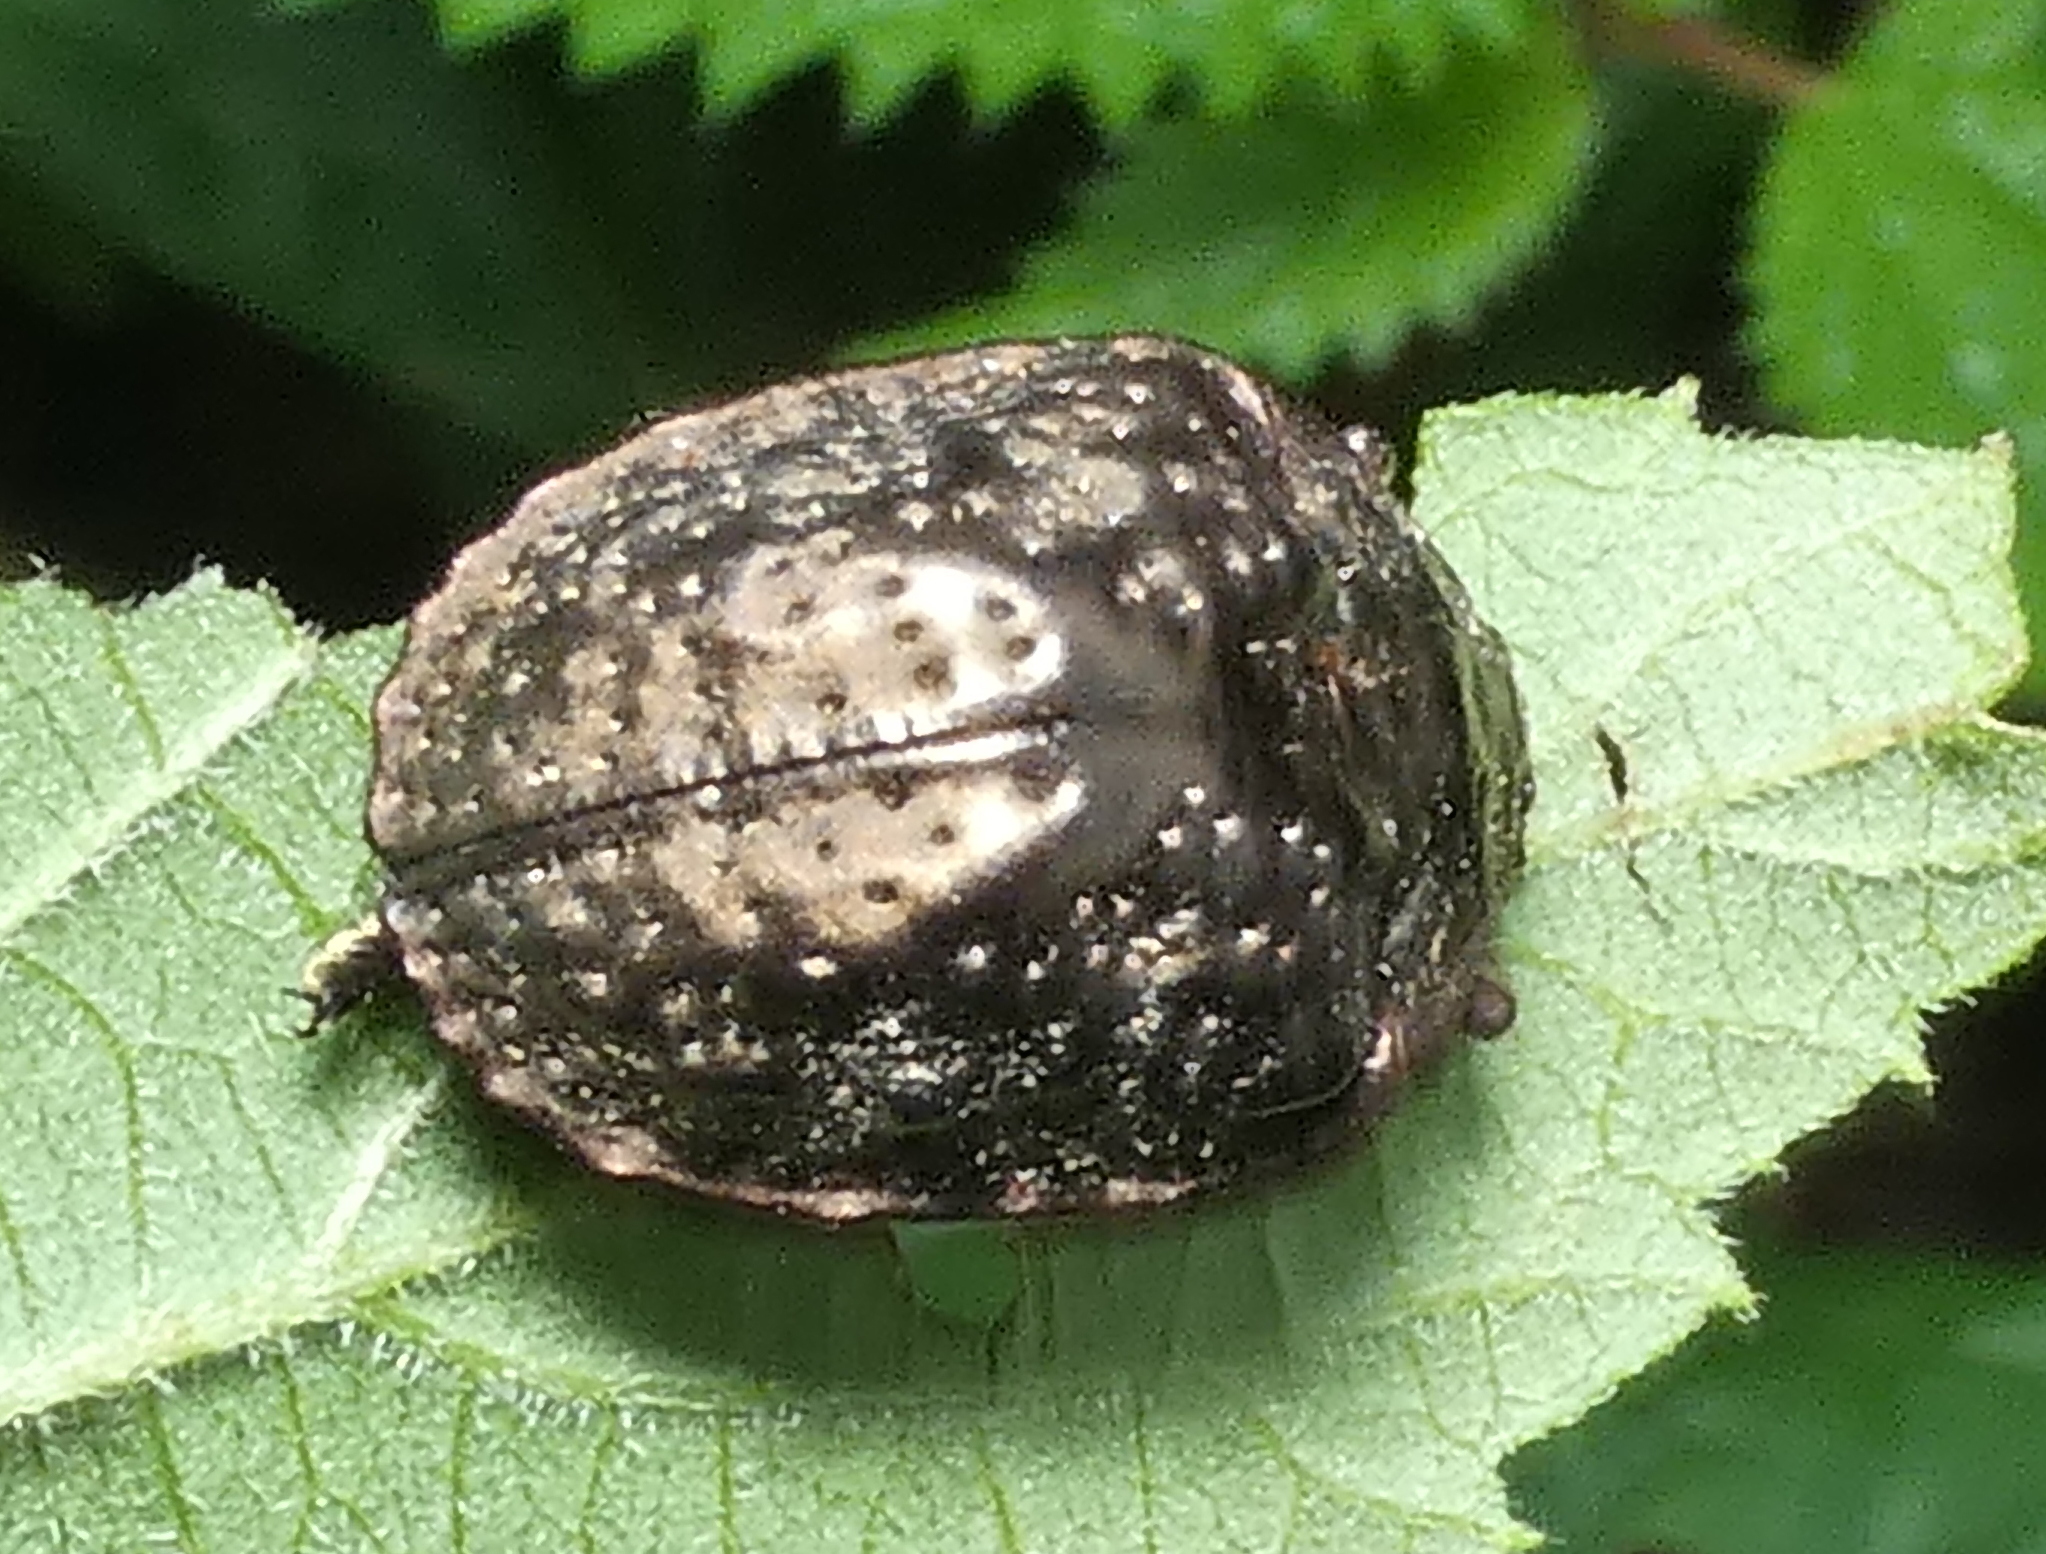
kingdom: Animalia
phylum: Arthropoda
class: Insecta
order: Coleoptera
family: Chrysomelidae
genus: Polychalca
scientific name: Polychalca aerea
